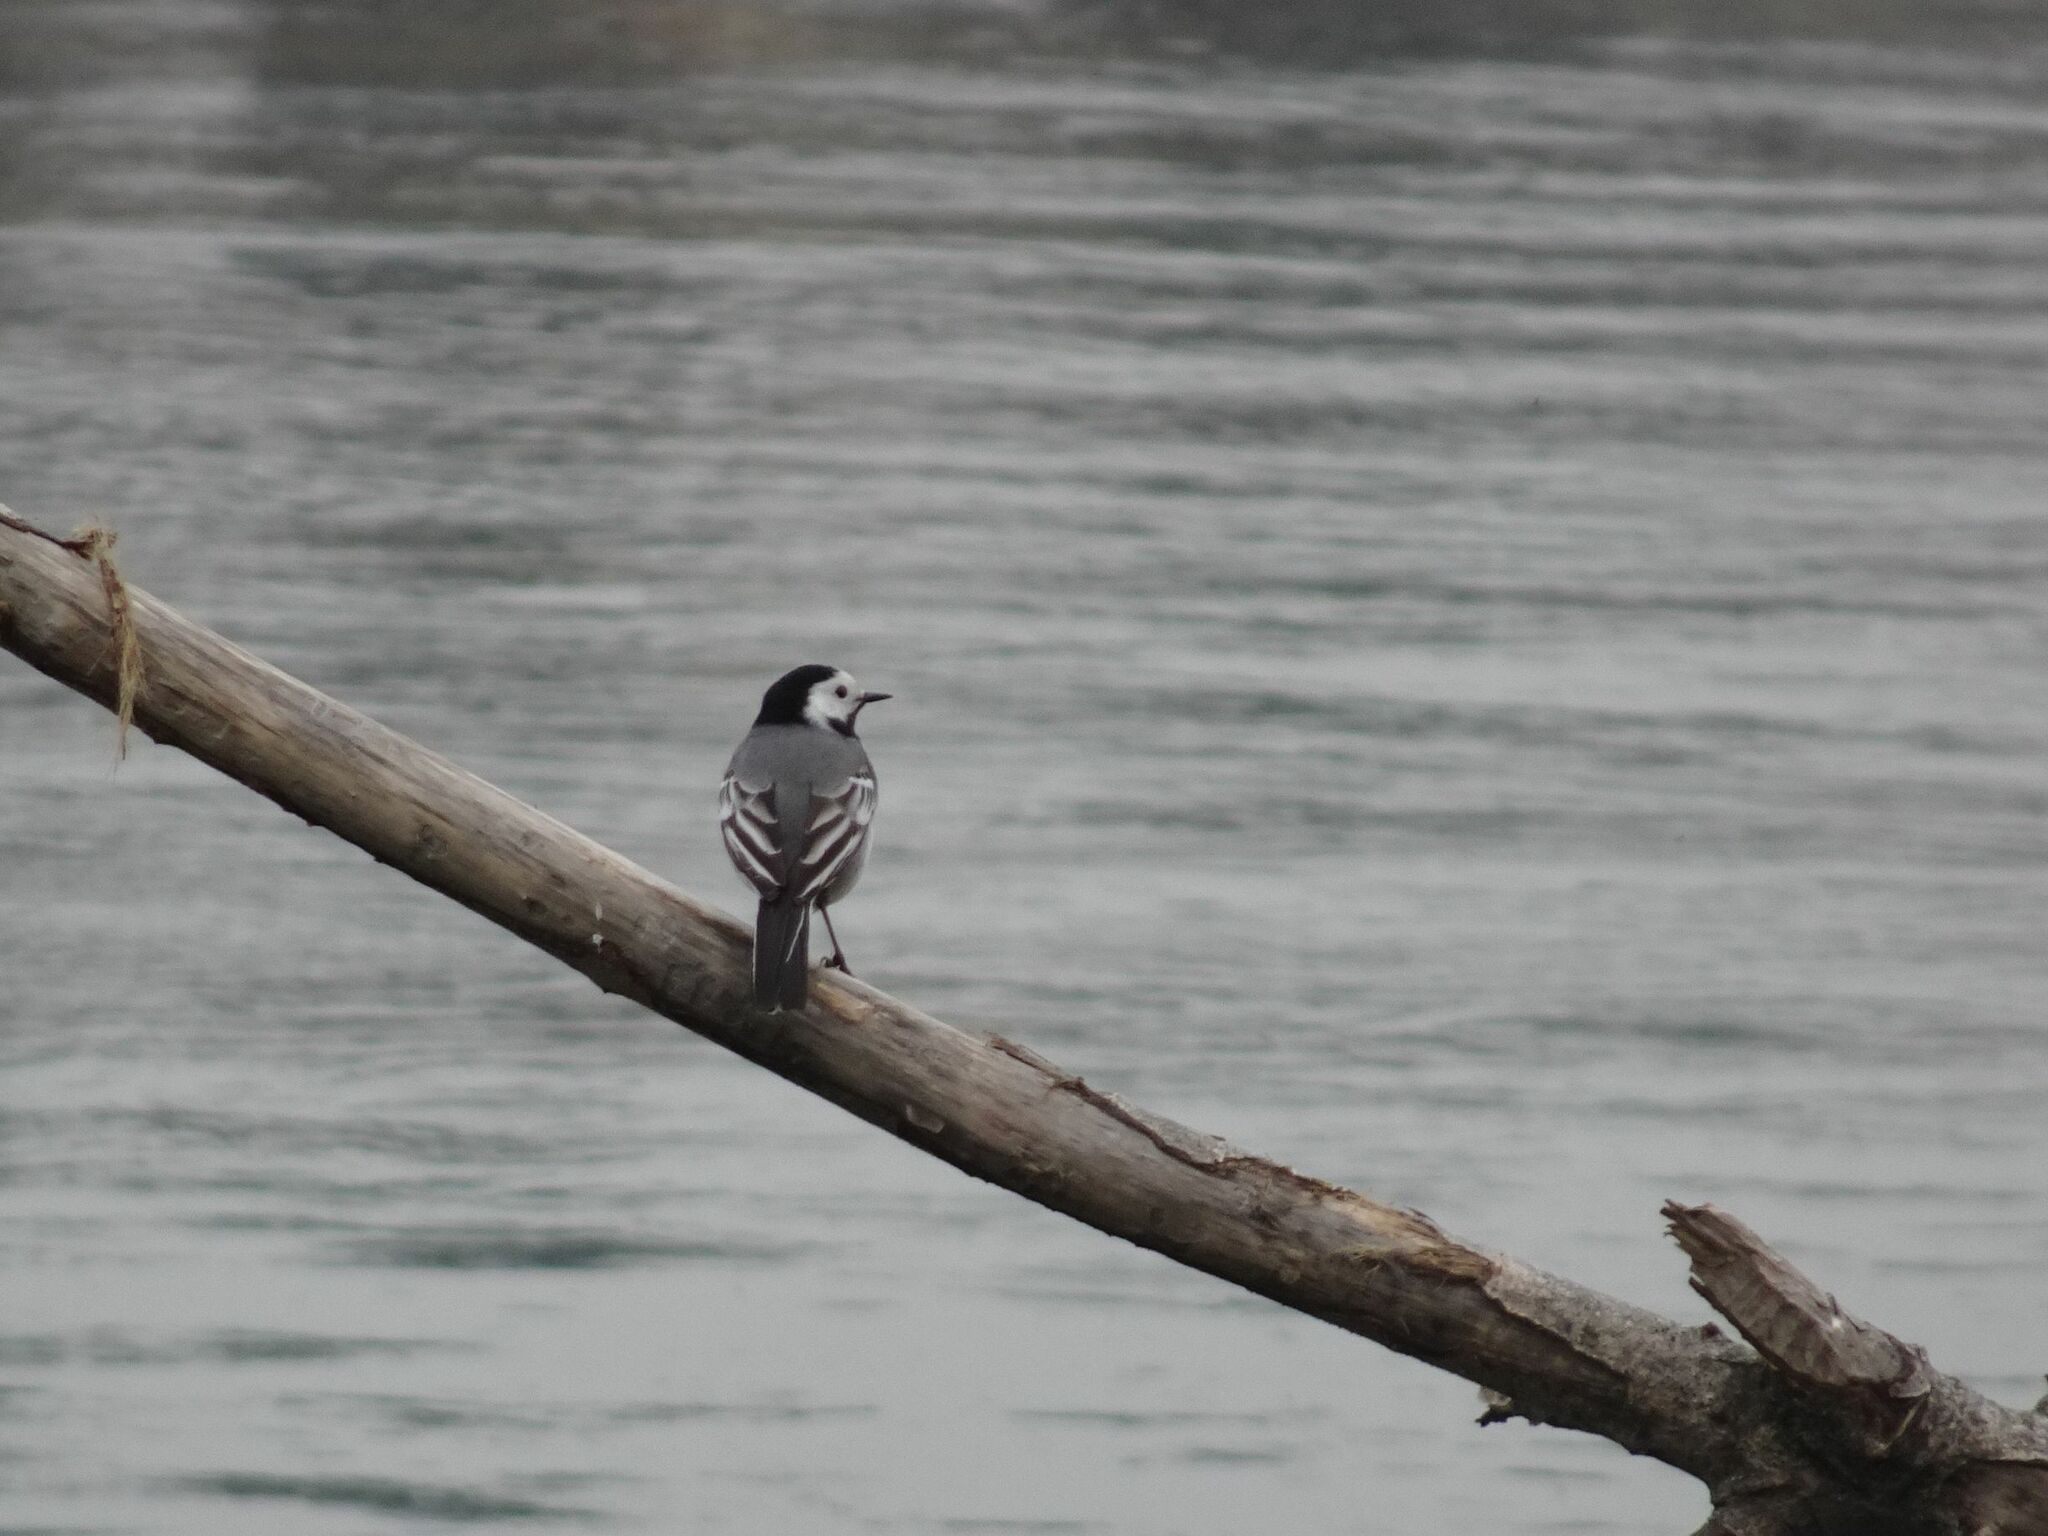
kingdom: Animalia
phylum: Chordata
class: Aves
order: Passeriformes
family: Motacillidae
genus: Motacilla
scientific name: Motacilla alba
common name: White wagtail
